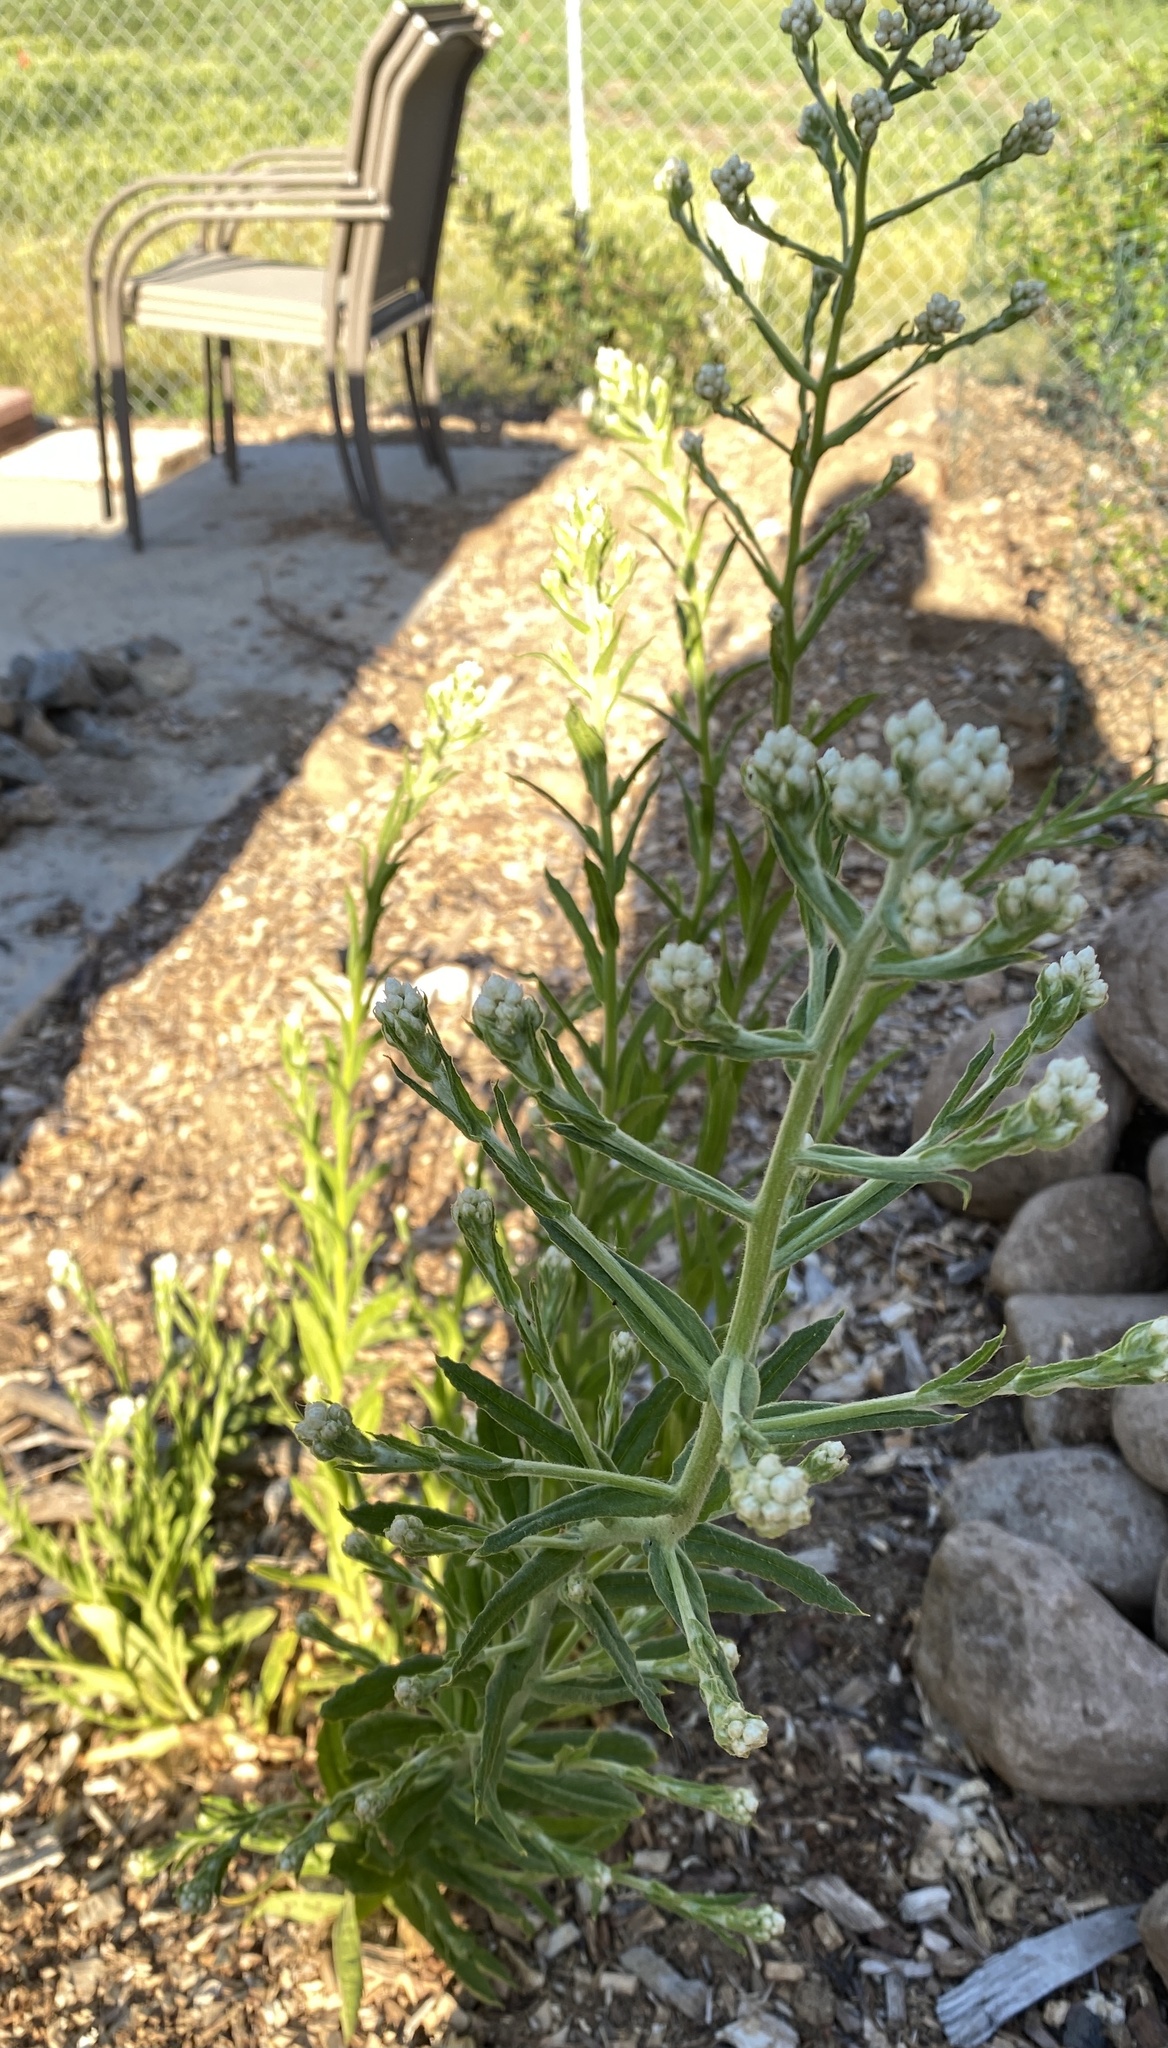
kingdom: Plantae
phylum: Tracheophyta
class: Magnoliopsida
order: Asterales
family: Asteraceae
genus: Pseudognaphalium
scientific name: Pseudognaphalium californicum
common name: California rabbit-tobacco
